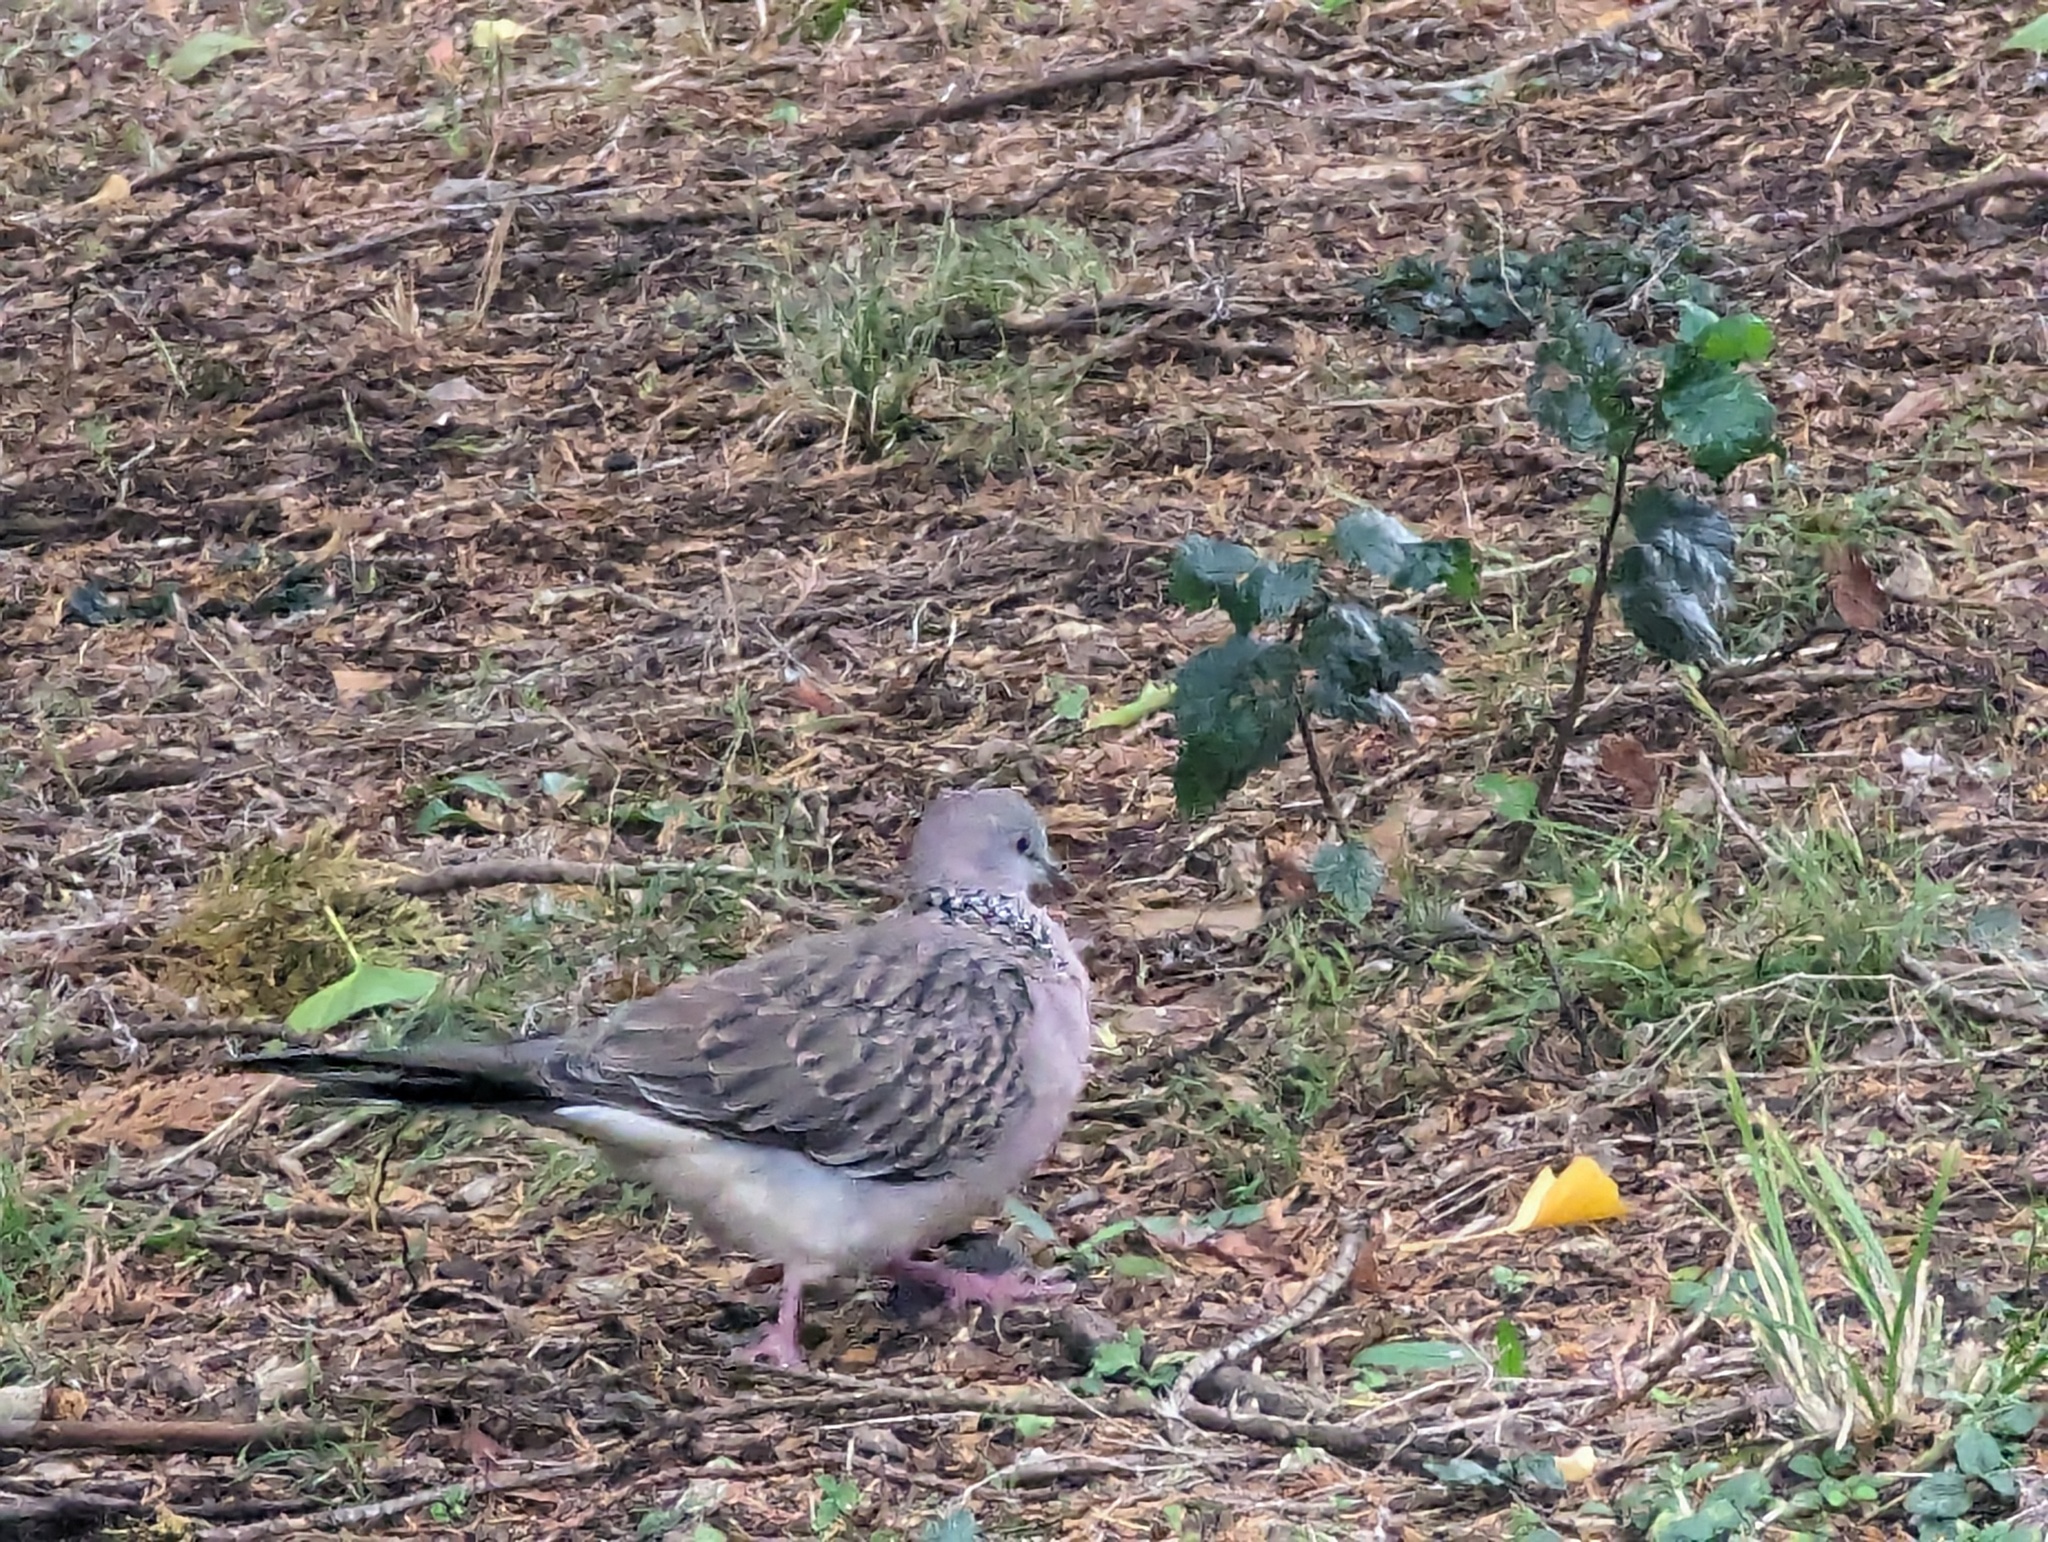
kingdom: Animalia
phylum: Chordata
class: Aves
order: Columbiformes
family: Columbidae
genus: Spilopelia
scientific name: Spilopelia chinensis
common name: Spotted dove
